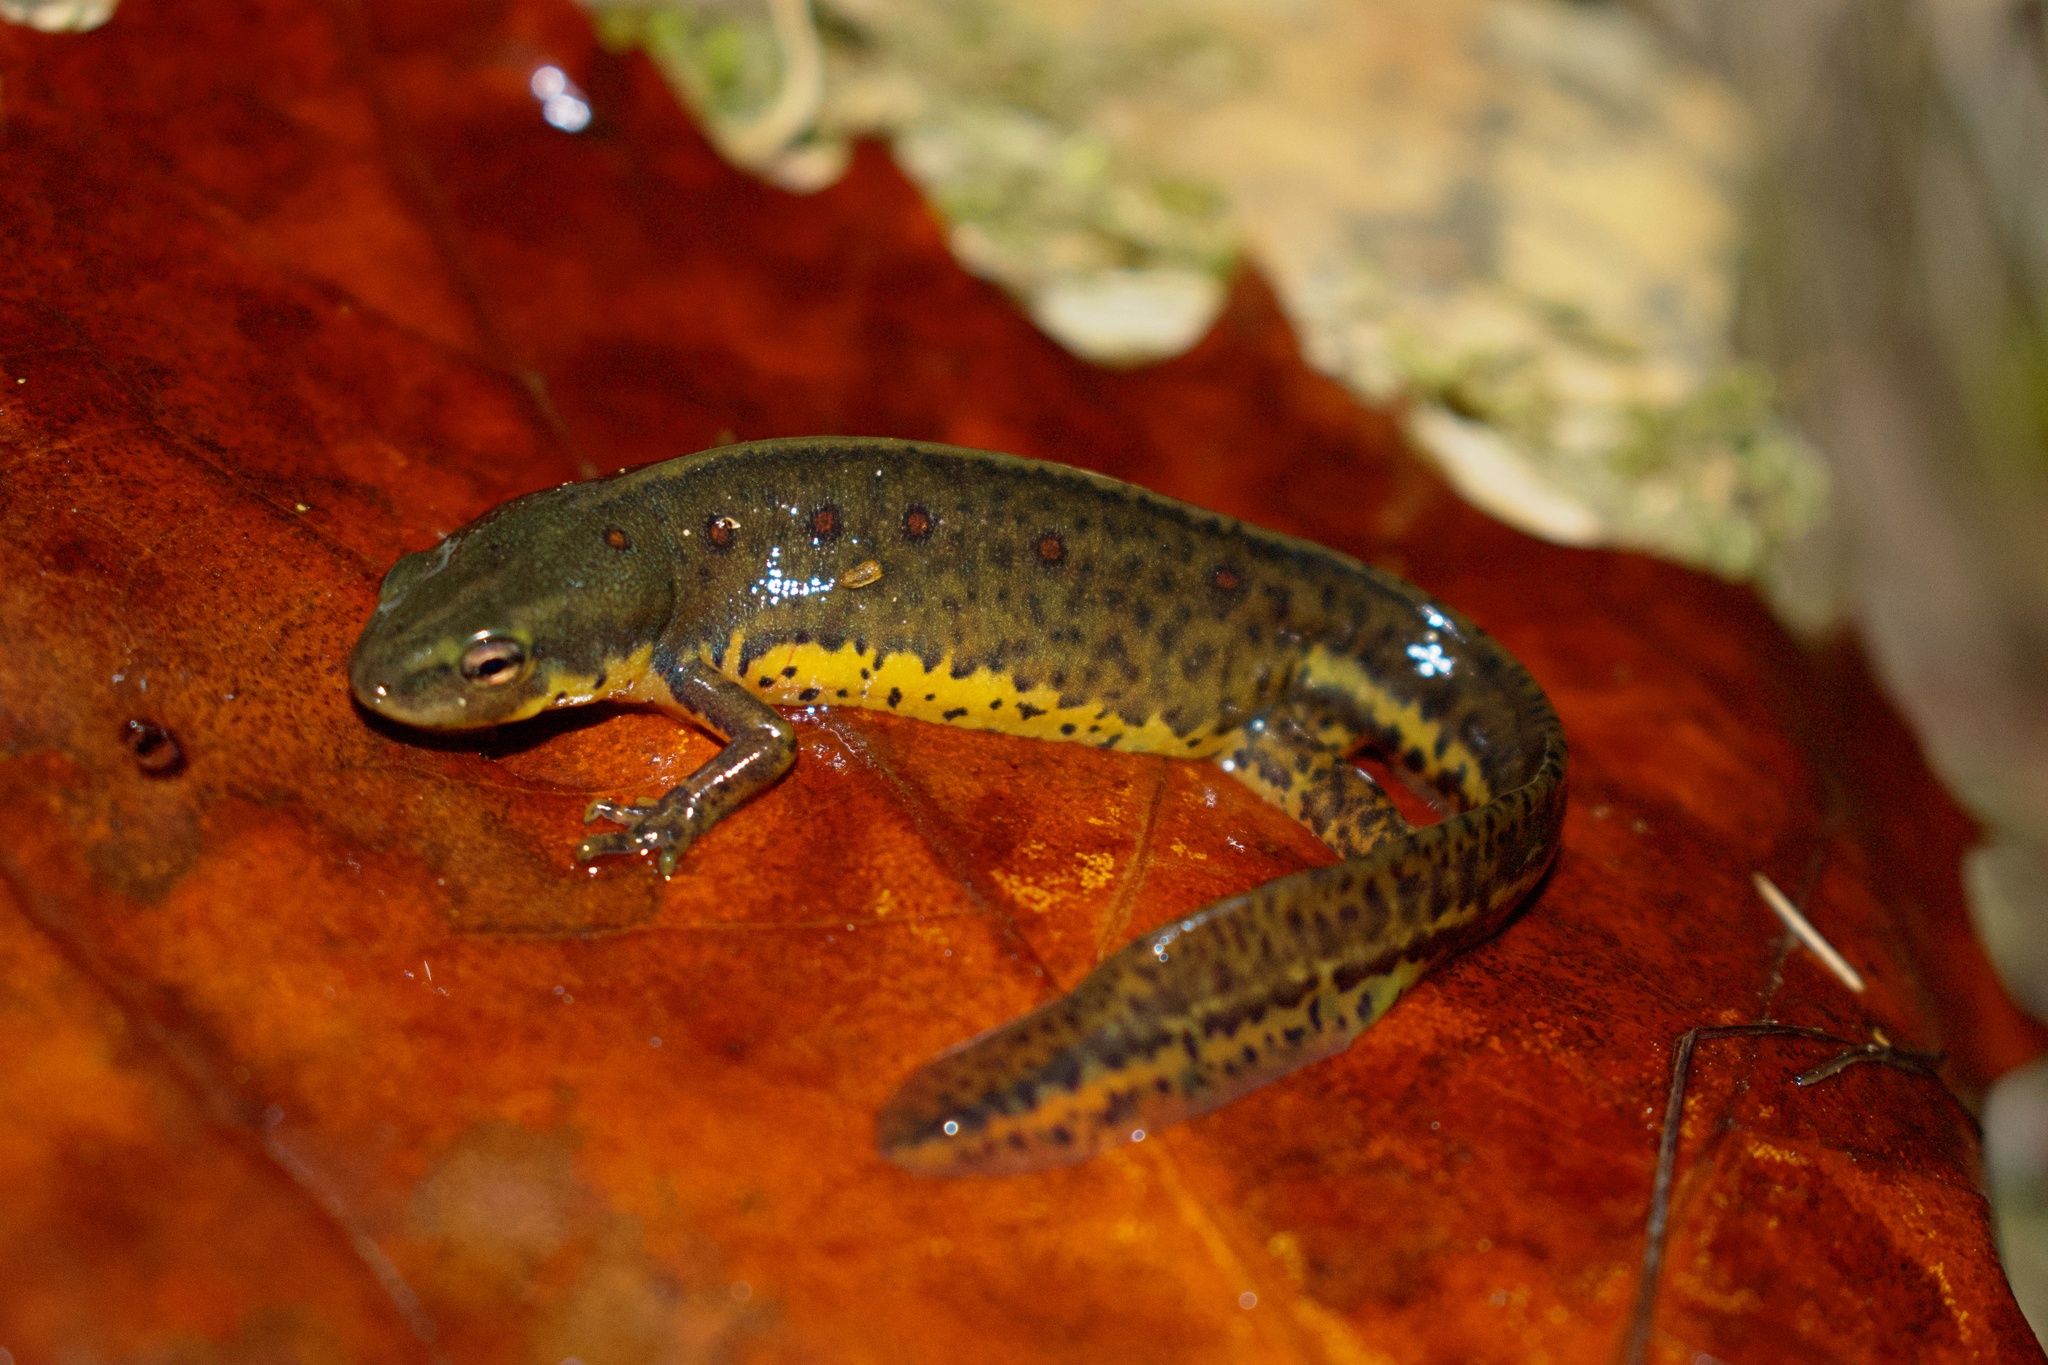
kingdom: Animalia
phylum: Chordata
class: Amphibia
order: Caudata
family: Salamandridae
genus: Notophthalmus
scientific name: Notophthalmus viridescens
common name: Eastern newt
